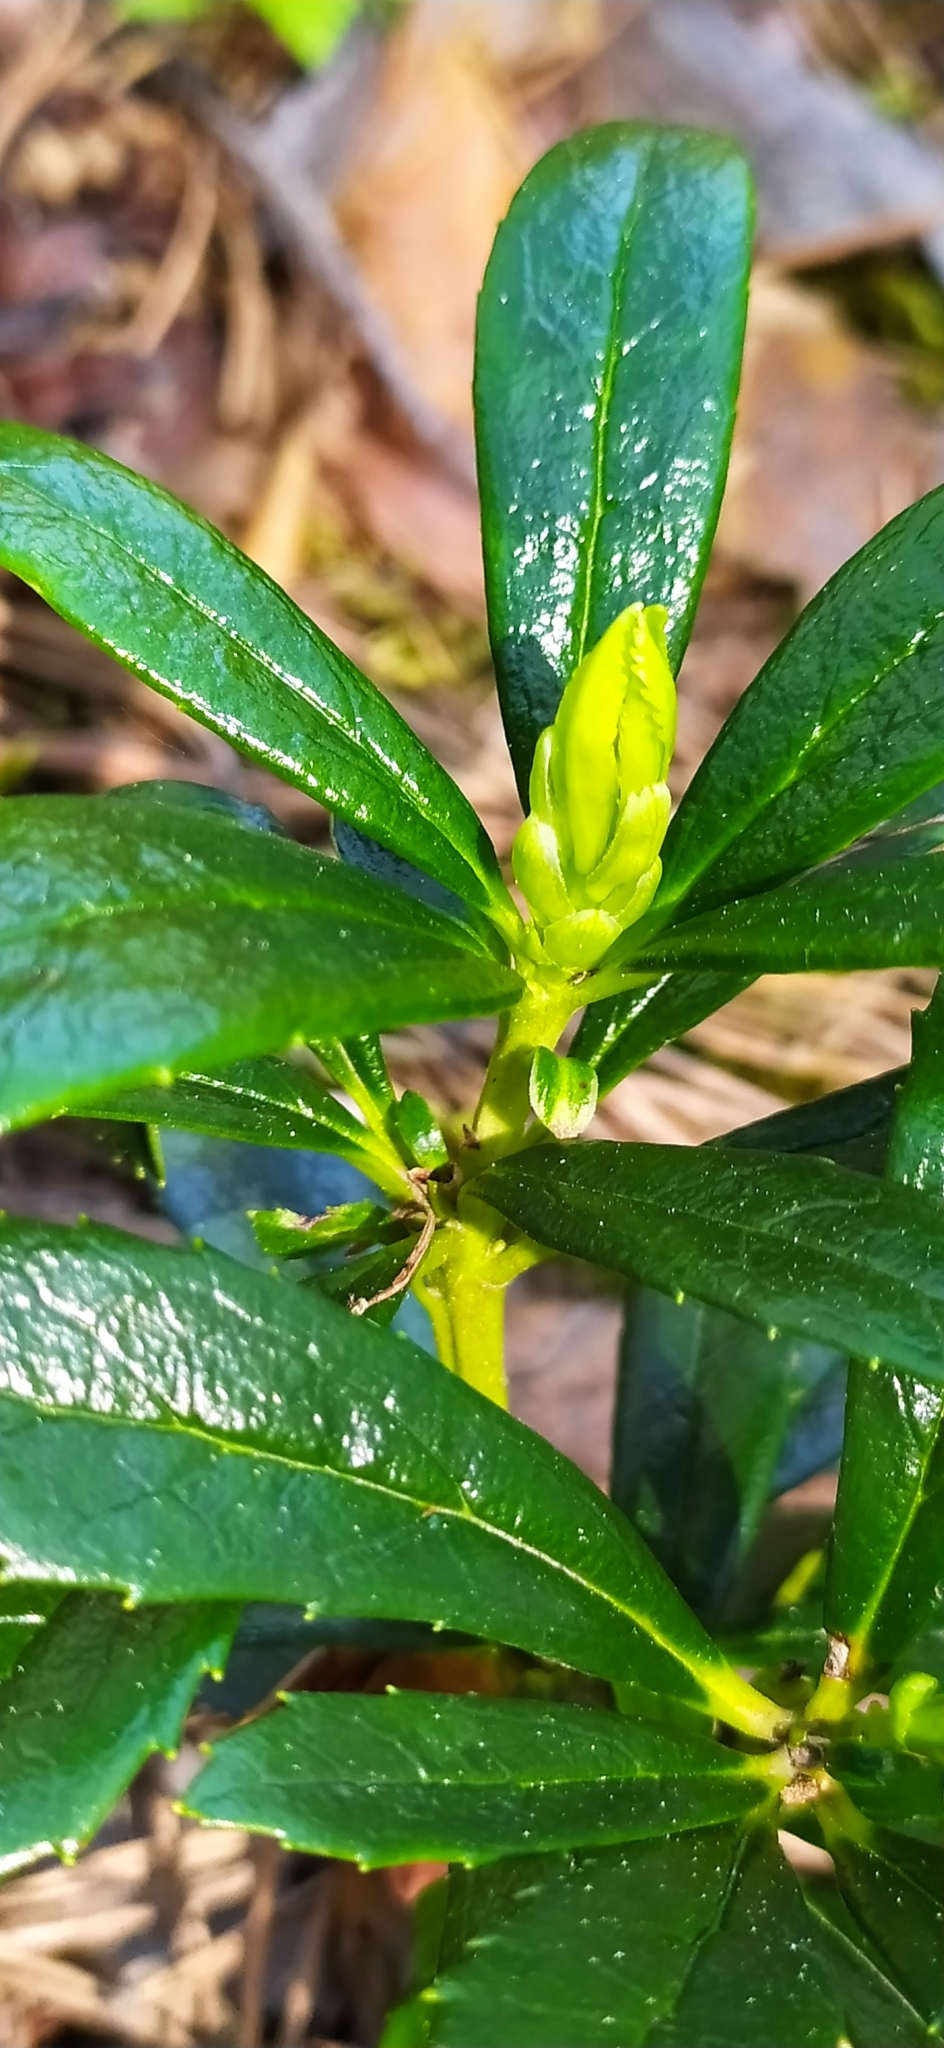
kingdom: Plantae
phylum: Tracheophyta
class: Magnoliopsida
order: Ericales
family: Ericaceae
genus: Chimaphila
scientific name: Chimaphila umbellata
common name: Pipsissewa
